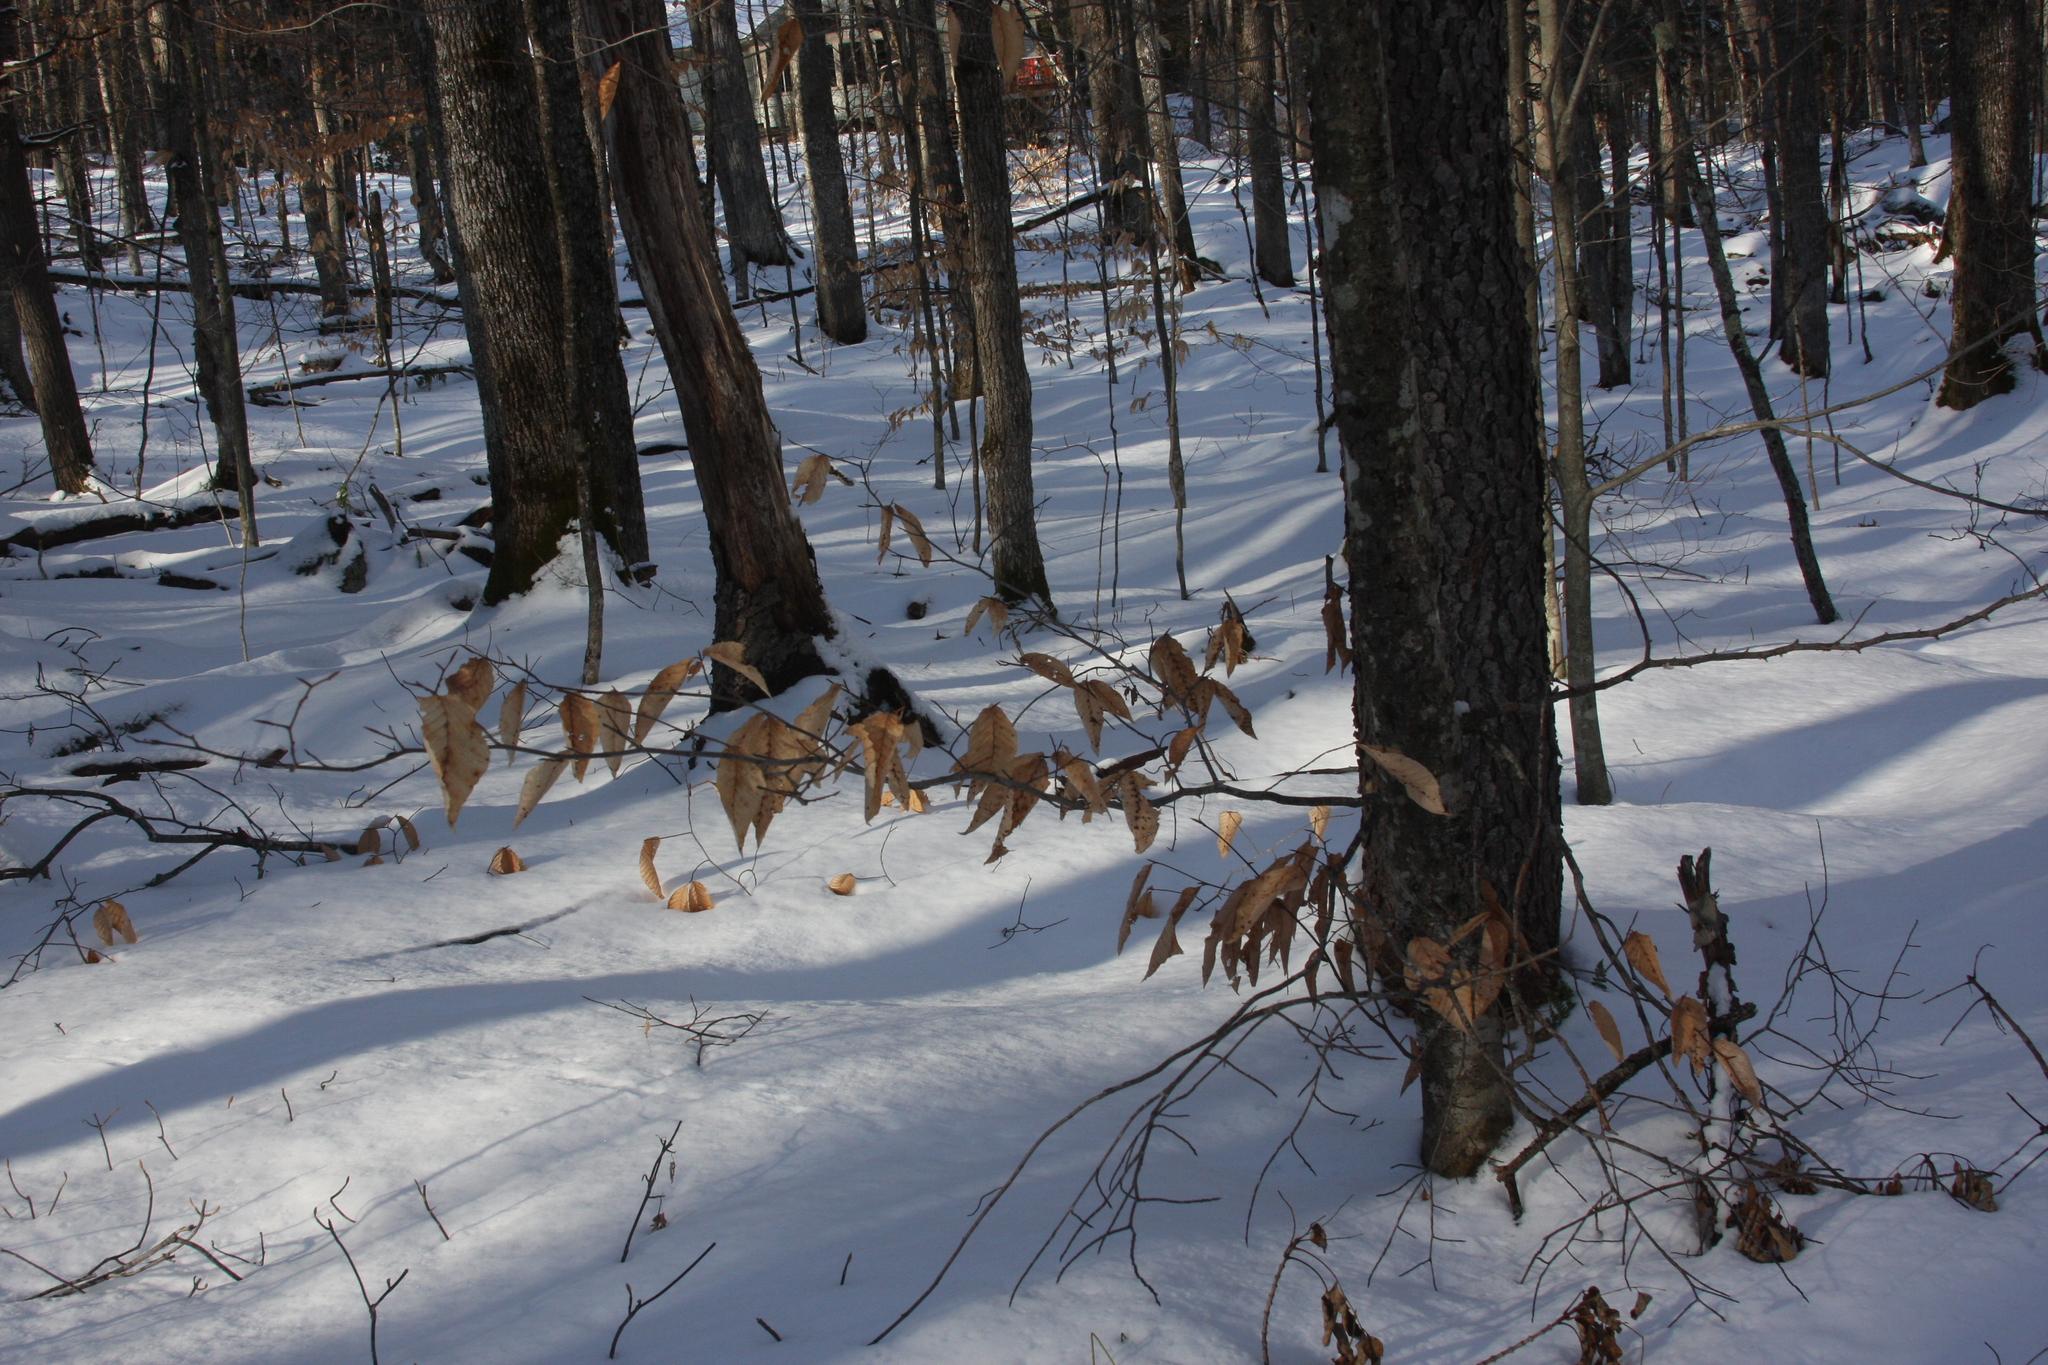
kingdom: Plantae
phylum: Tracheophyta
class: Magnoliopsida
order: Fagales
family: Fagaceae
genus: Fagus
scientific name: Fagus grandifolia
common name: American beech
